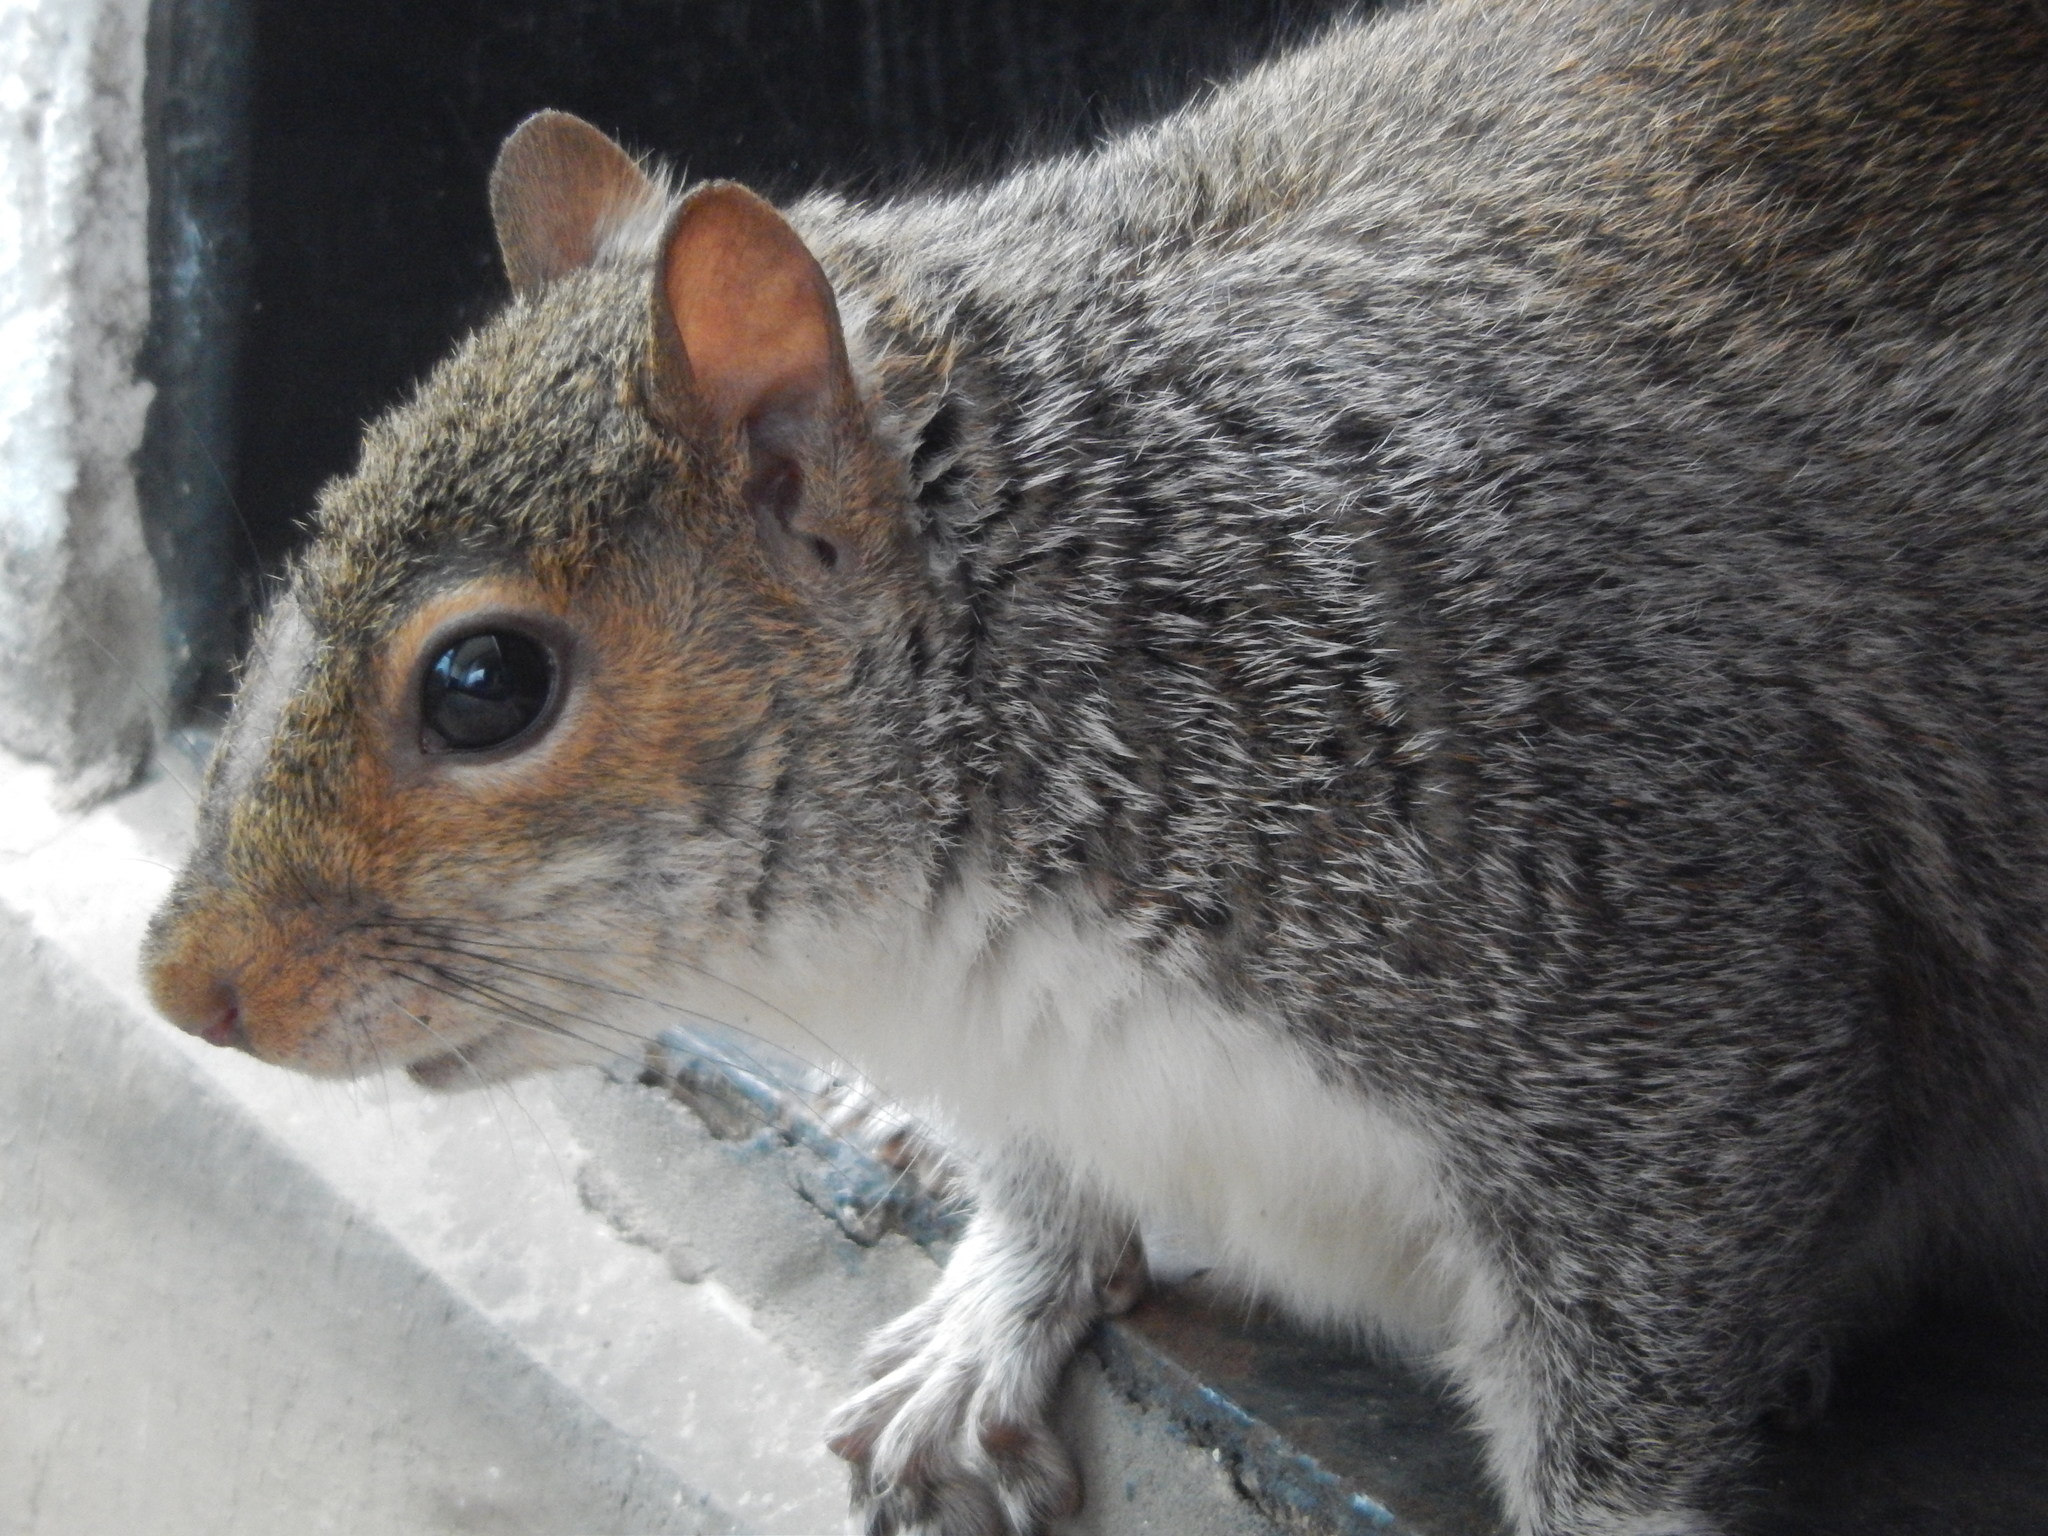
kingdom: Animalia
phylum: Chordata
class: Mammalia
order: Rodentia
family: Sciuridae
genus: Sciurus
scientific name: Sciurus carolinensis
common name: Eastern gray squirrel
